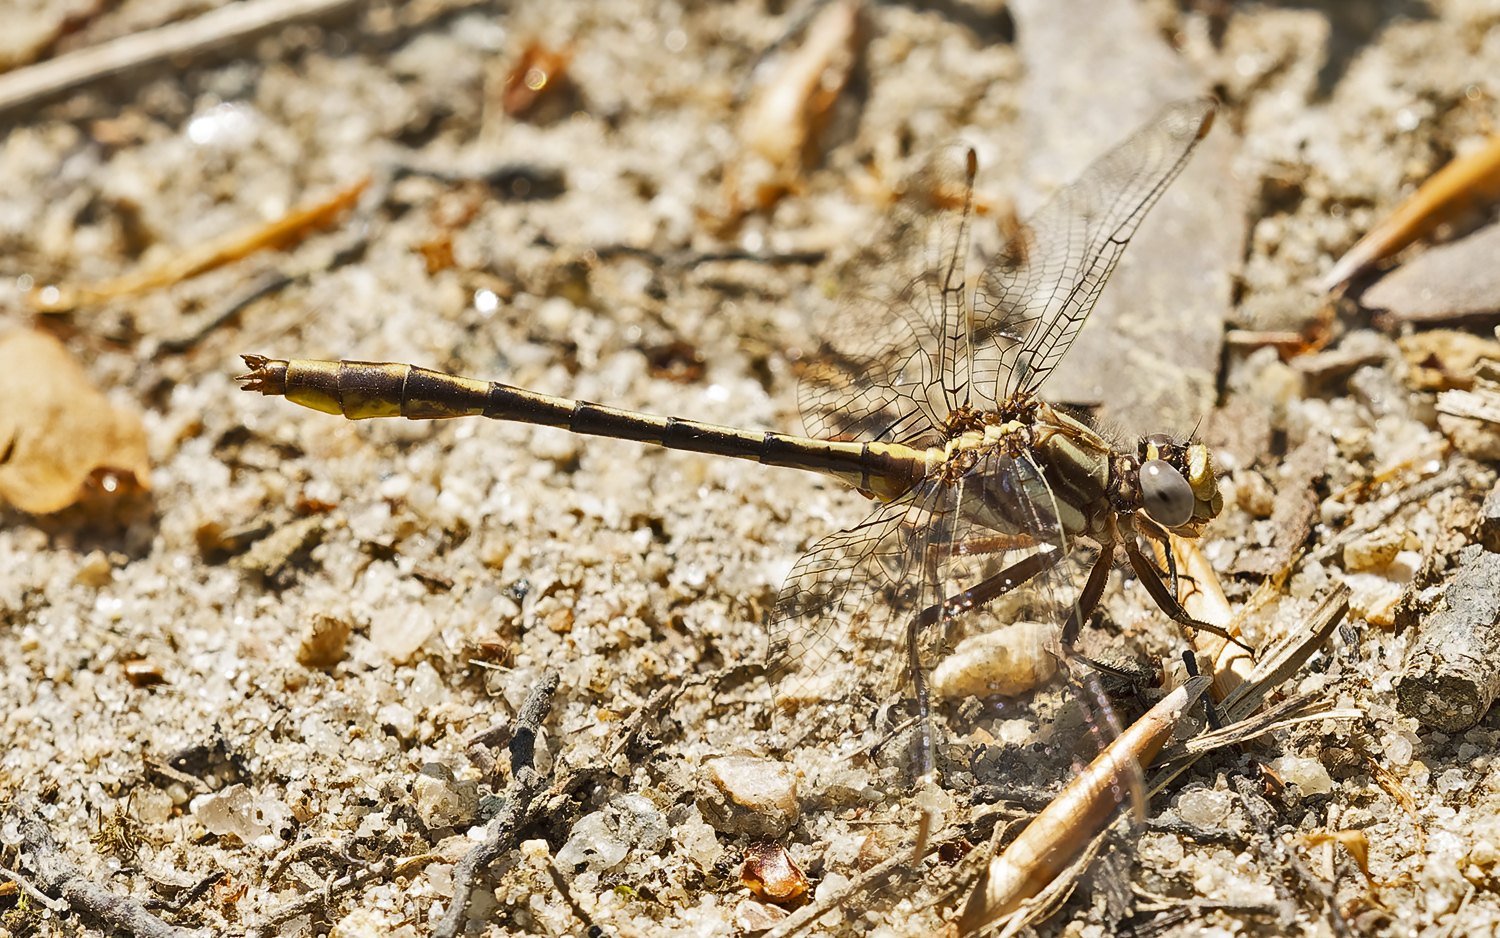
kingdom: Animalia
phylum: Arthropoda
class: Insecta
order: Odonata
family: Gomphidae
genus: Phanogomphus
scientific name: Phanogomphus exilis
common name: Lancet clubtail
